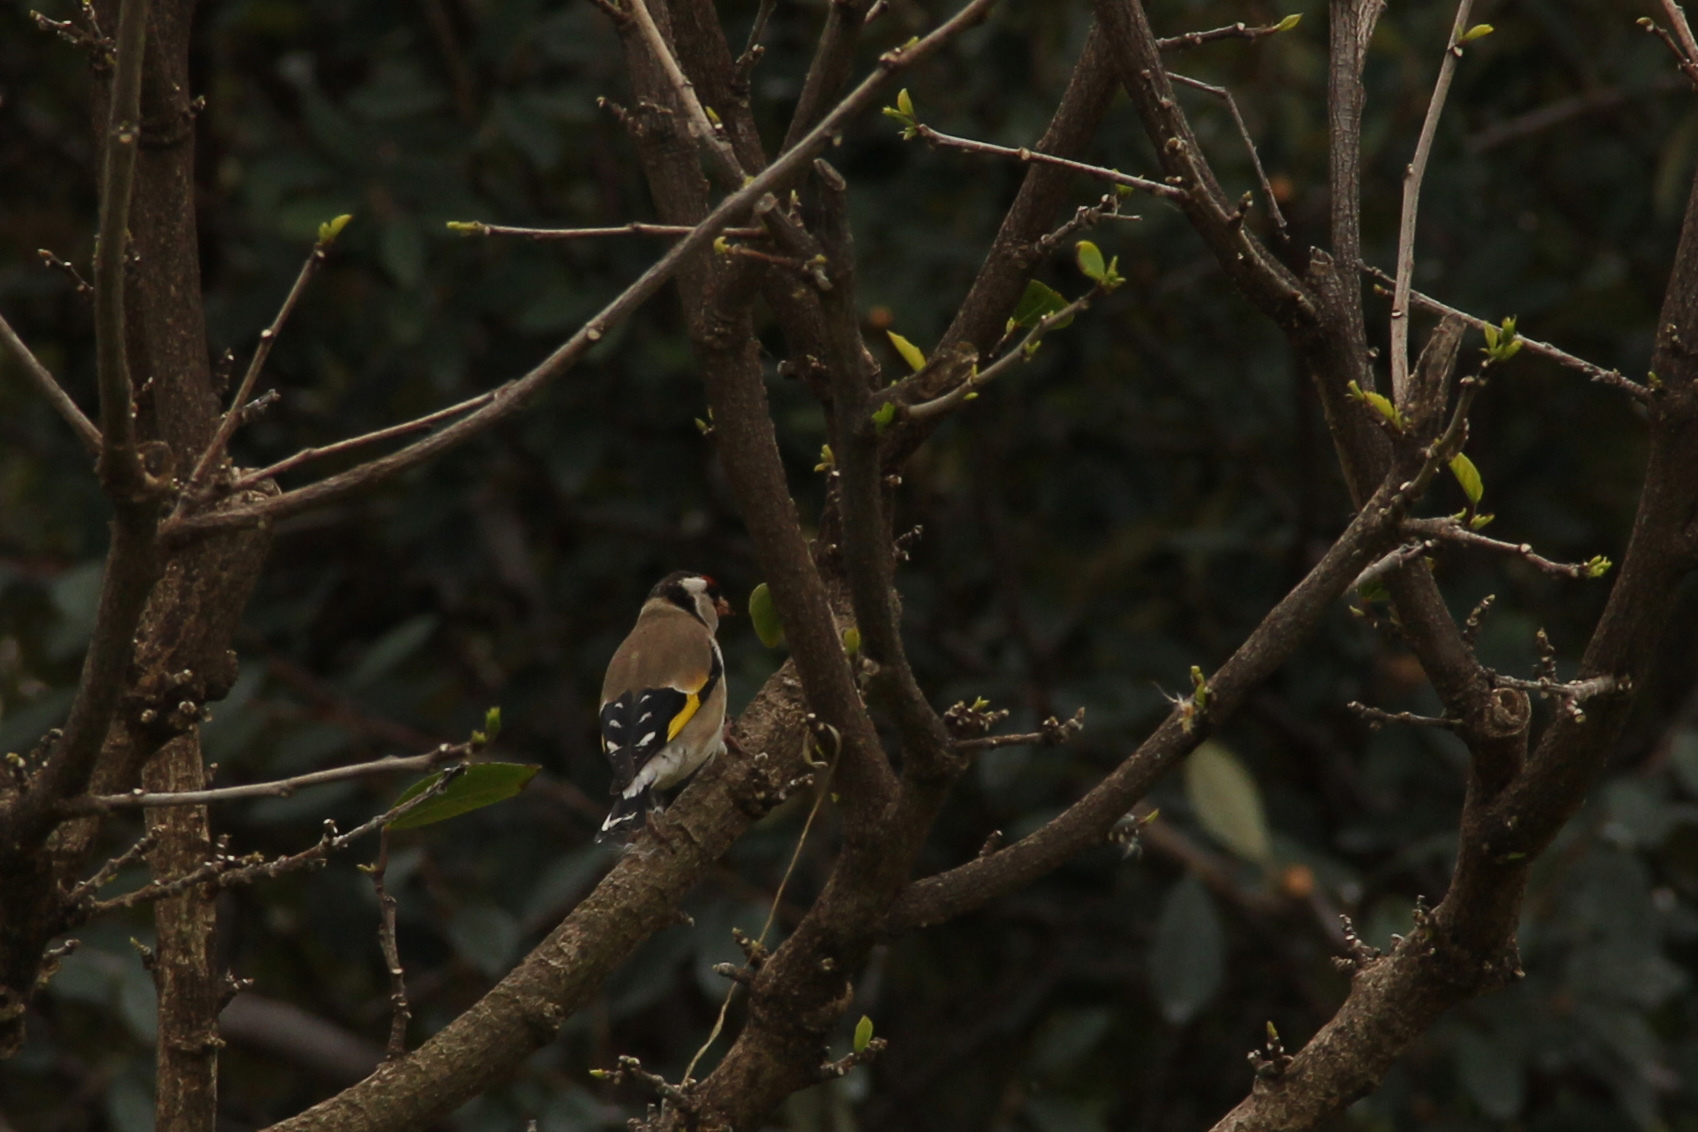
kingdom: Animalia
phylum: Chordata
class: Aves
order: Passeriformes
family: Fringillidae
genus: Carduelis
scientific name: Carduelis carduelis
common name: European goldfinch
